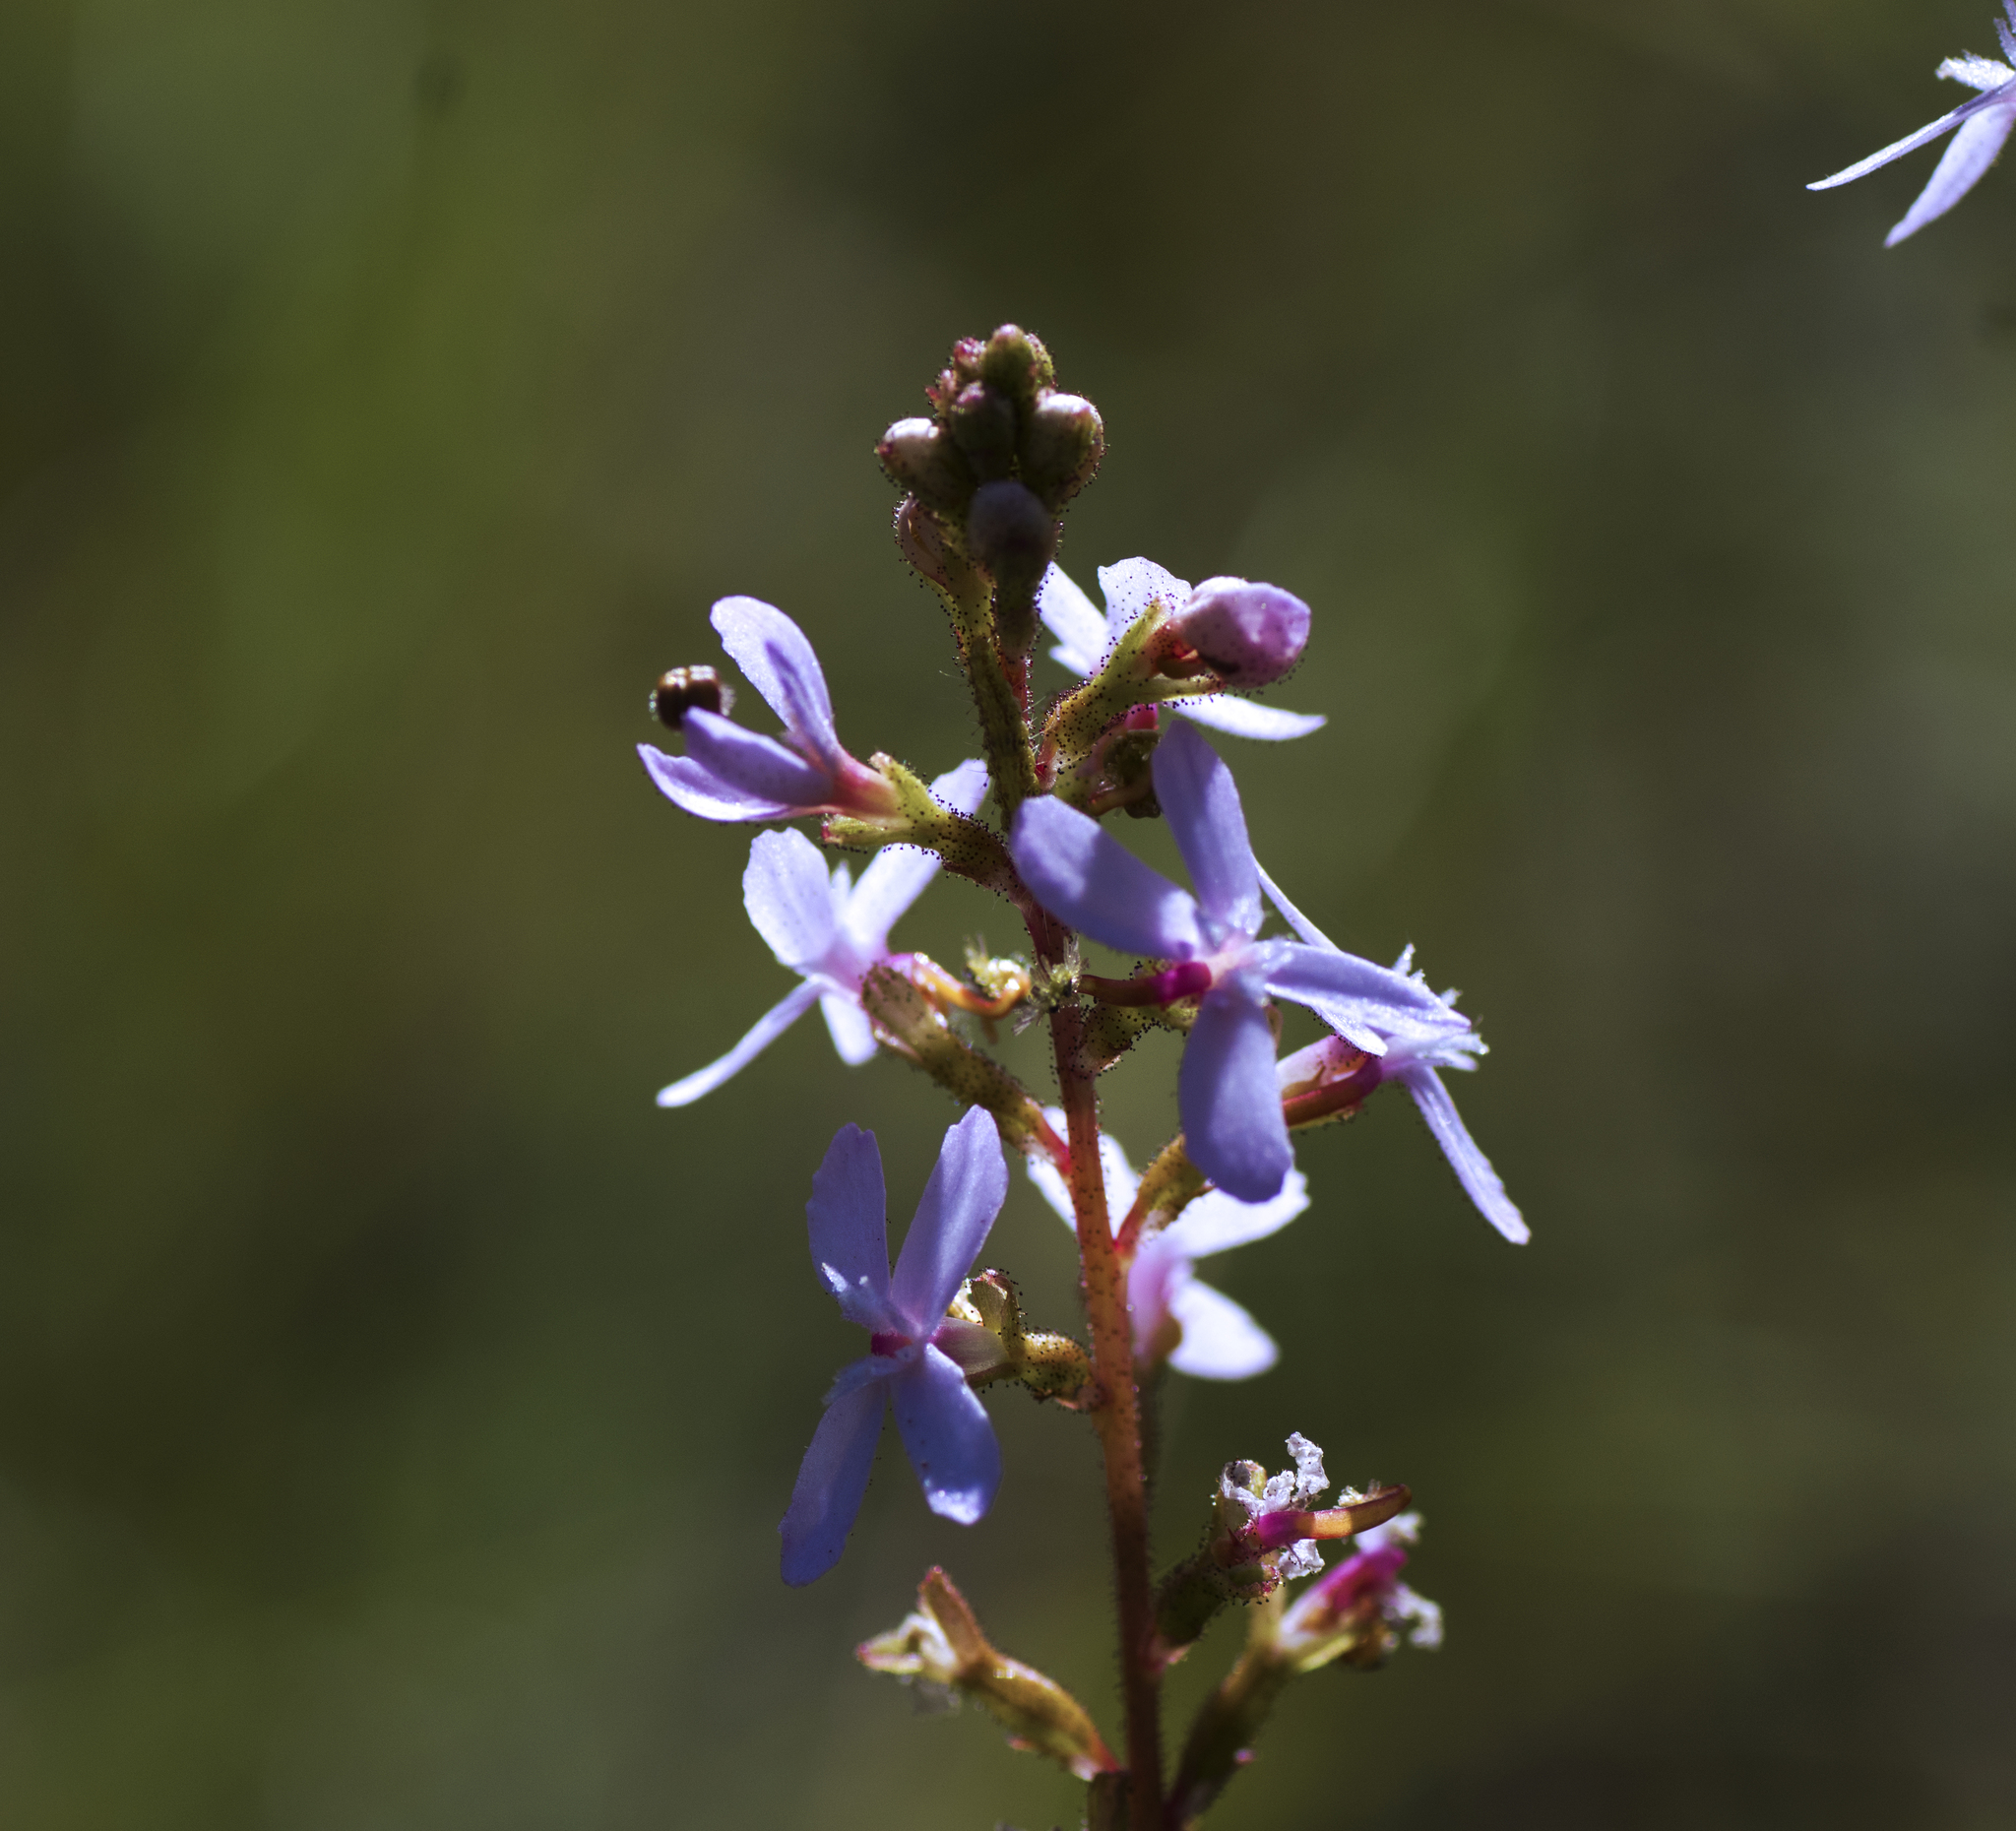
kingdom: Plantae
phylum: Tracheophyta
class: Magnoliopsida
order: Asterales
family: Stylidiaceae
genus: Stylidium
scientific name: Stylidium graminifolium
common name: Grass triggerplant
